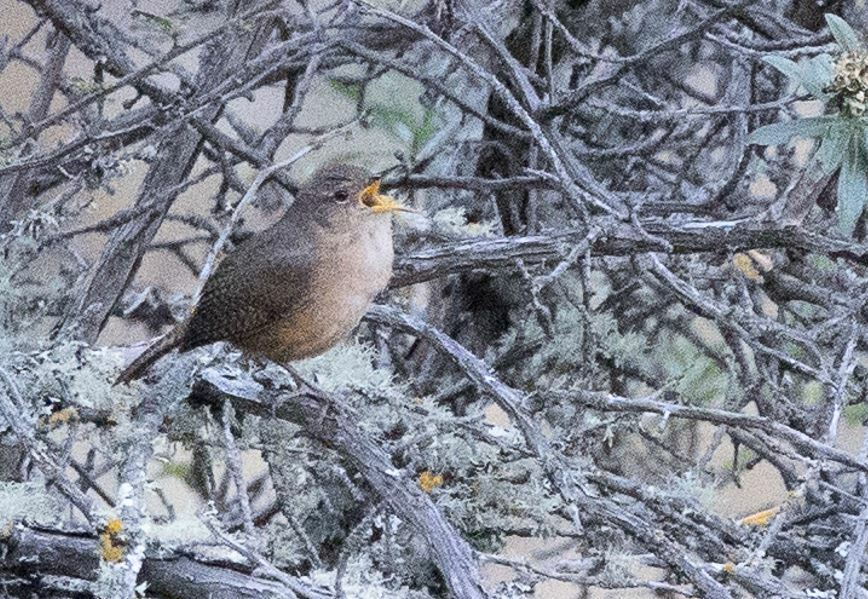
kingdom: Animalia
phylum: Chordata
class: Aves
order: Passeriformes
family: Troglodytidae
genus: Troglodytes
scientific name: Troglodytes aedon
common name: House wren
